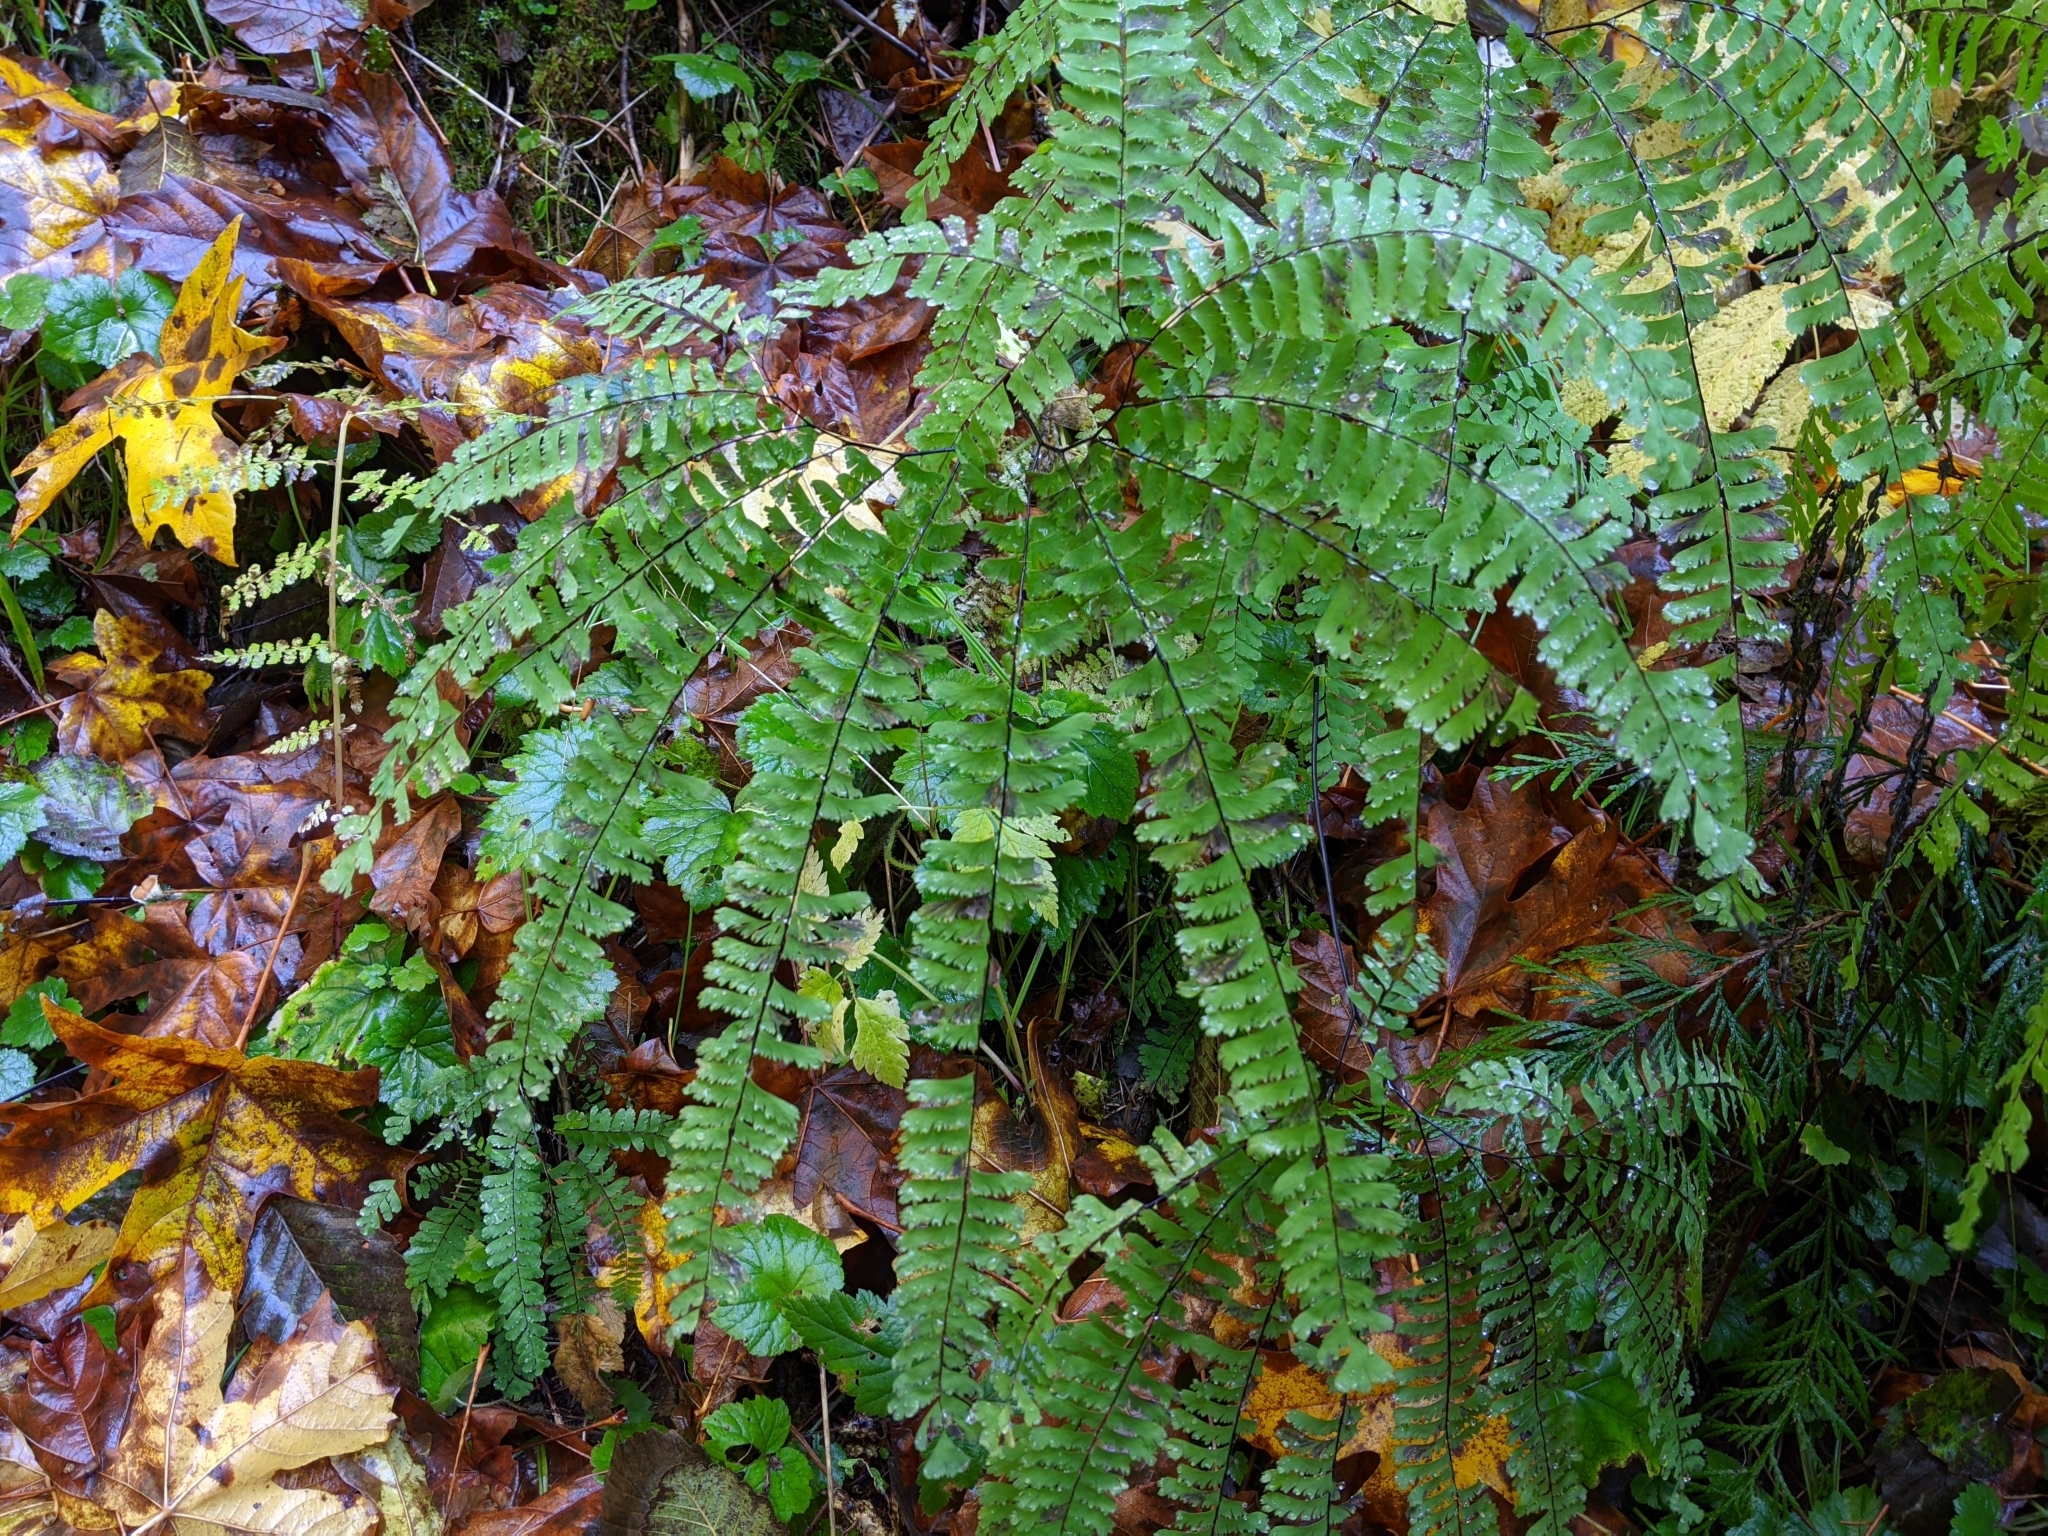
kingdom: Plantae
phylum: Tracheophyta
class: Polypodiopsida
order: Polypodiales
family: Pteridaceae
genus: Adiantum
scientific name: Adiantum aleuticum
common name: Aleutian maidenhair fern
